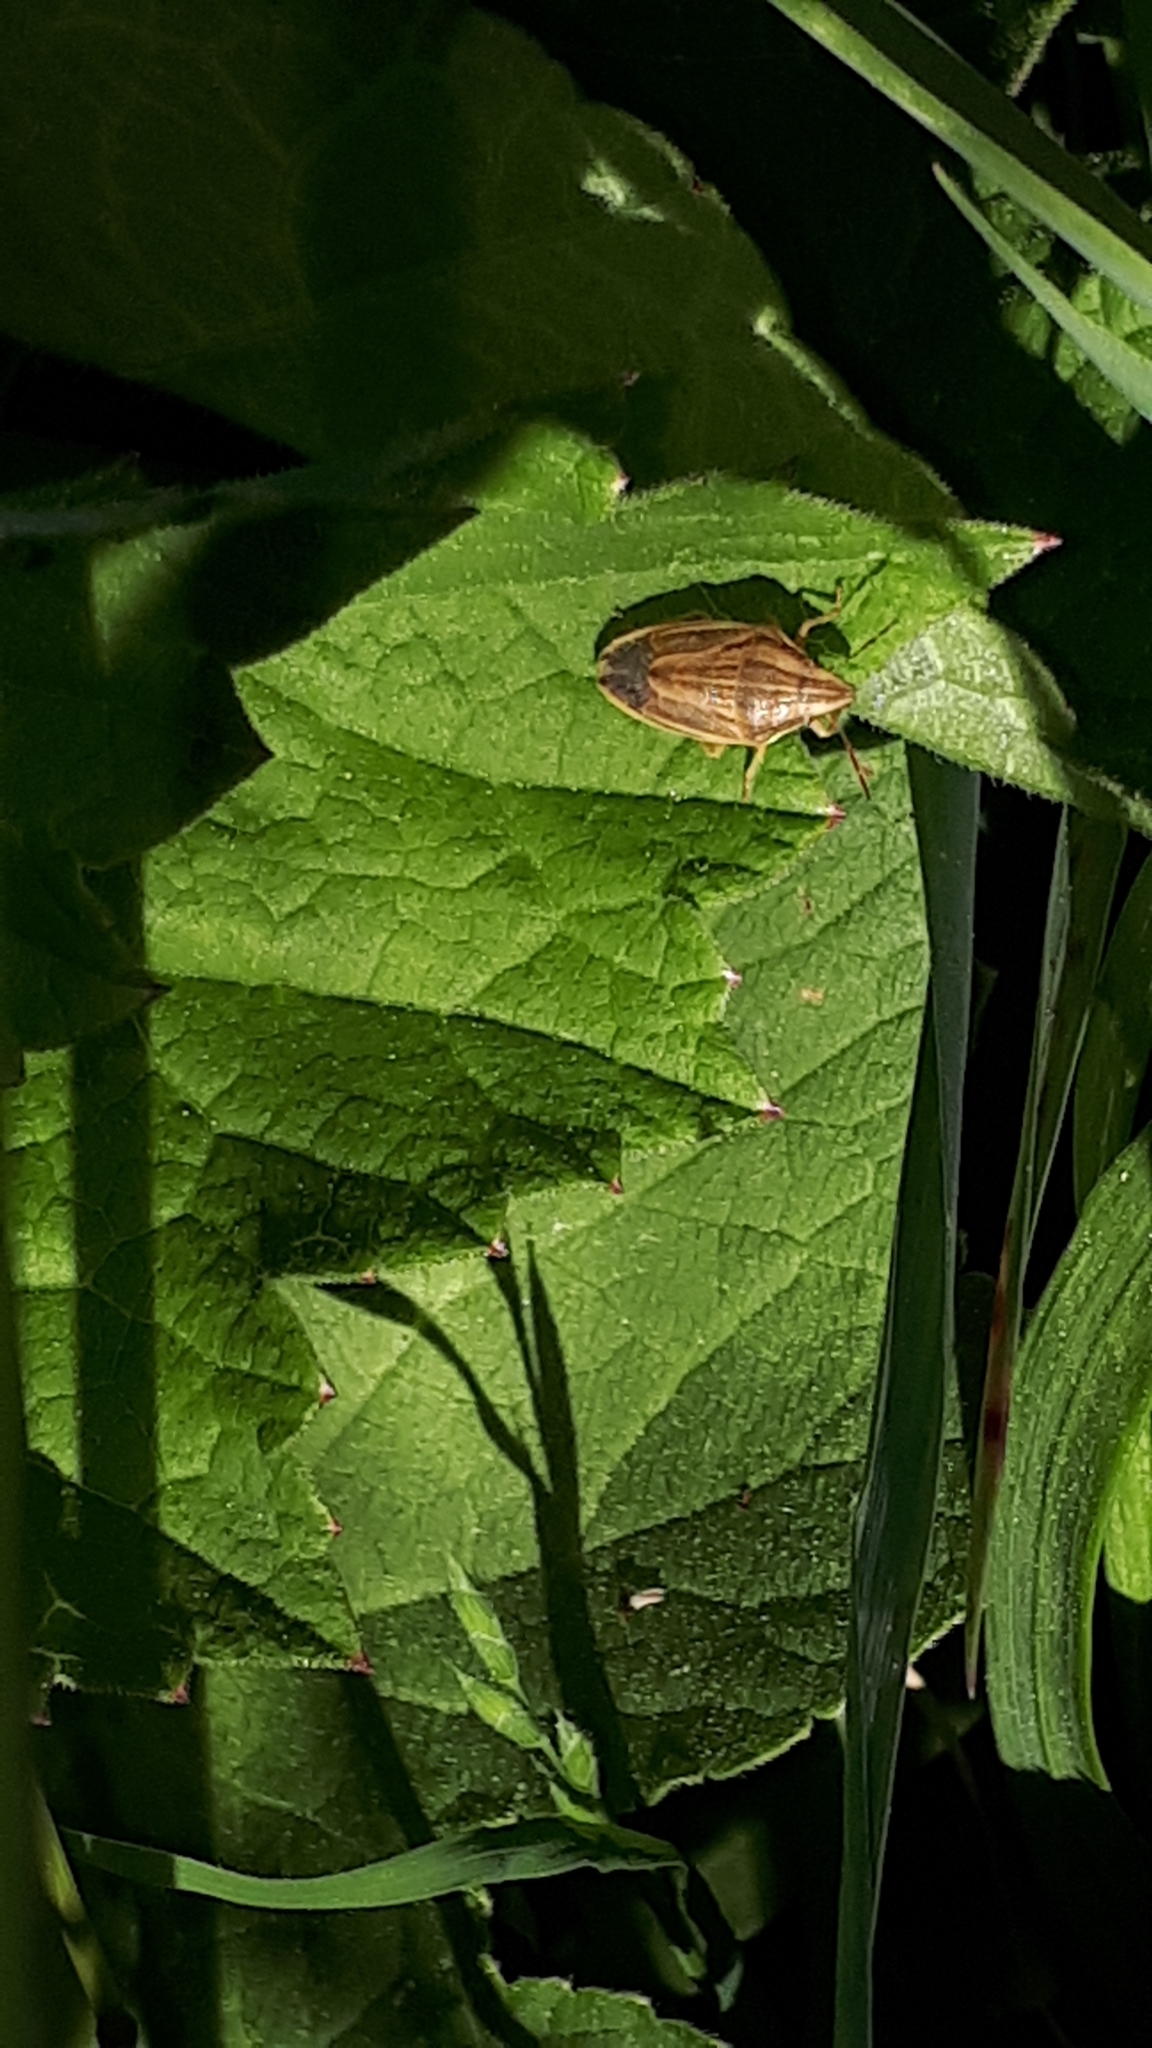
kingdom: Animalia
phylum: Arthropoda
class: Insecta
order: Hemiptera
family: Pentatomidae
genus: Aelia
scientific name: Aelia acuminata
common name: Bishop's mitre
